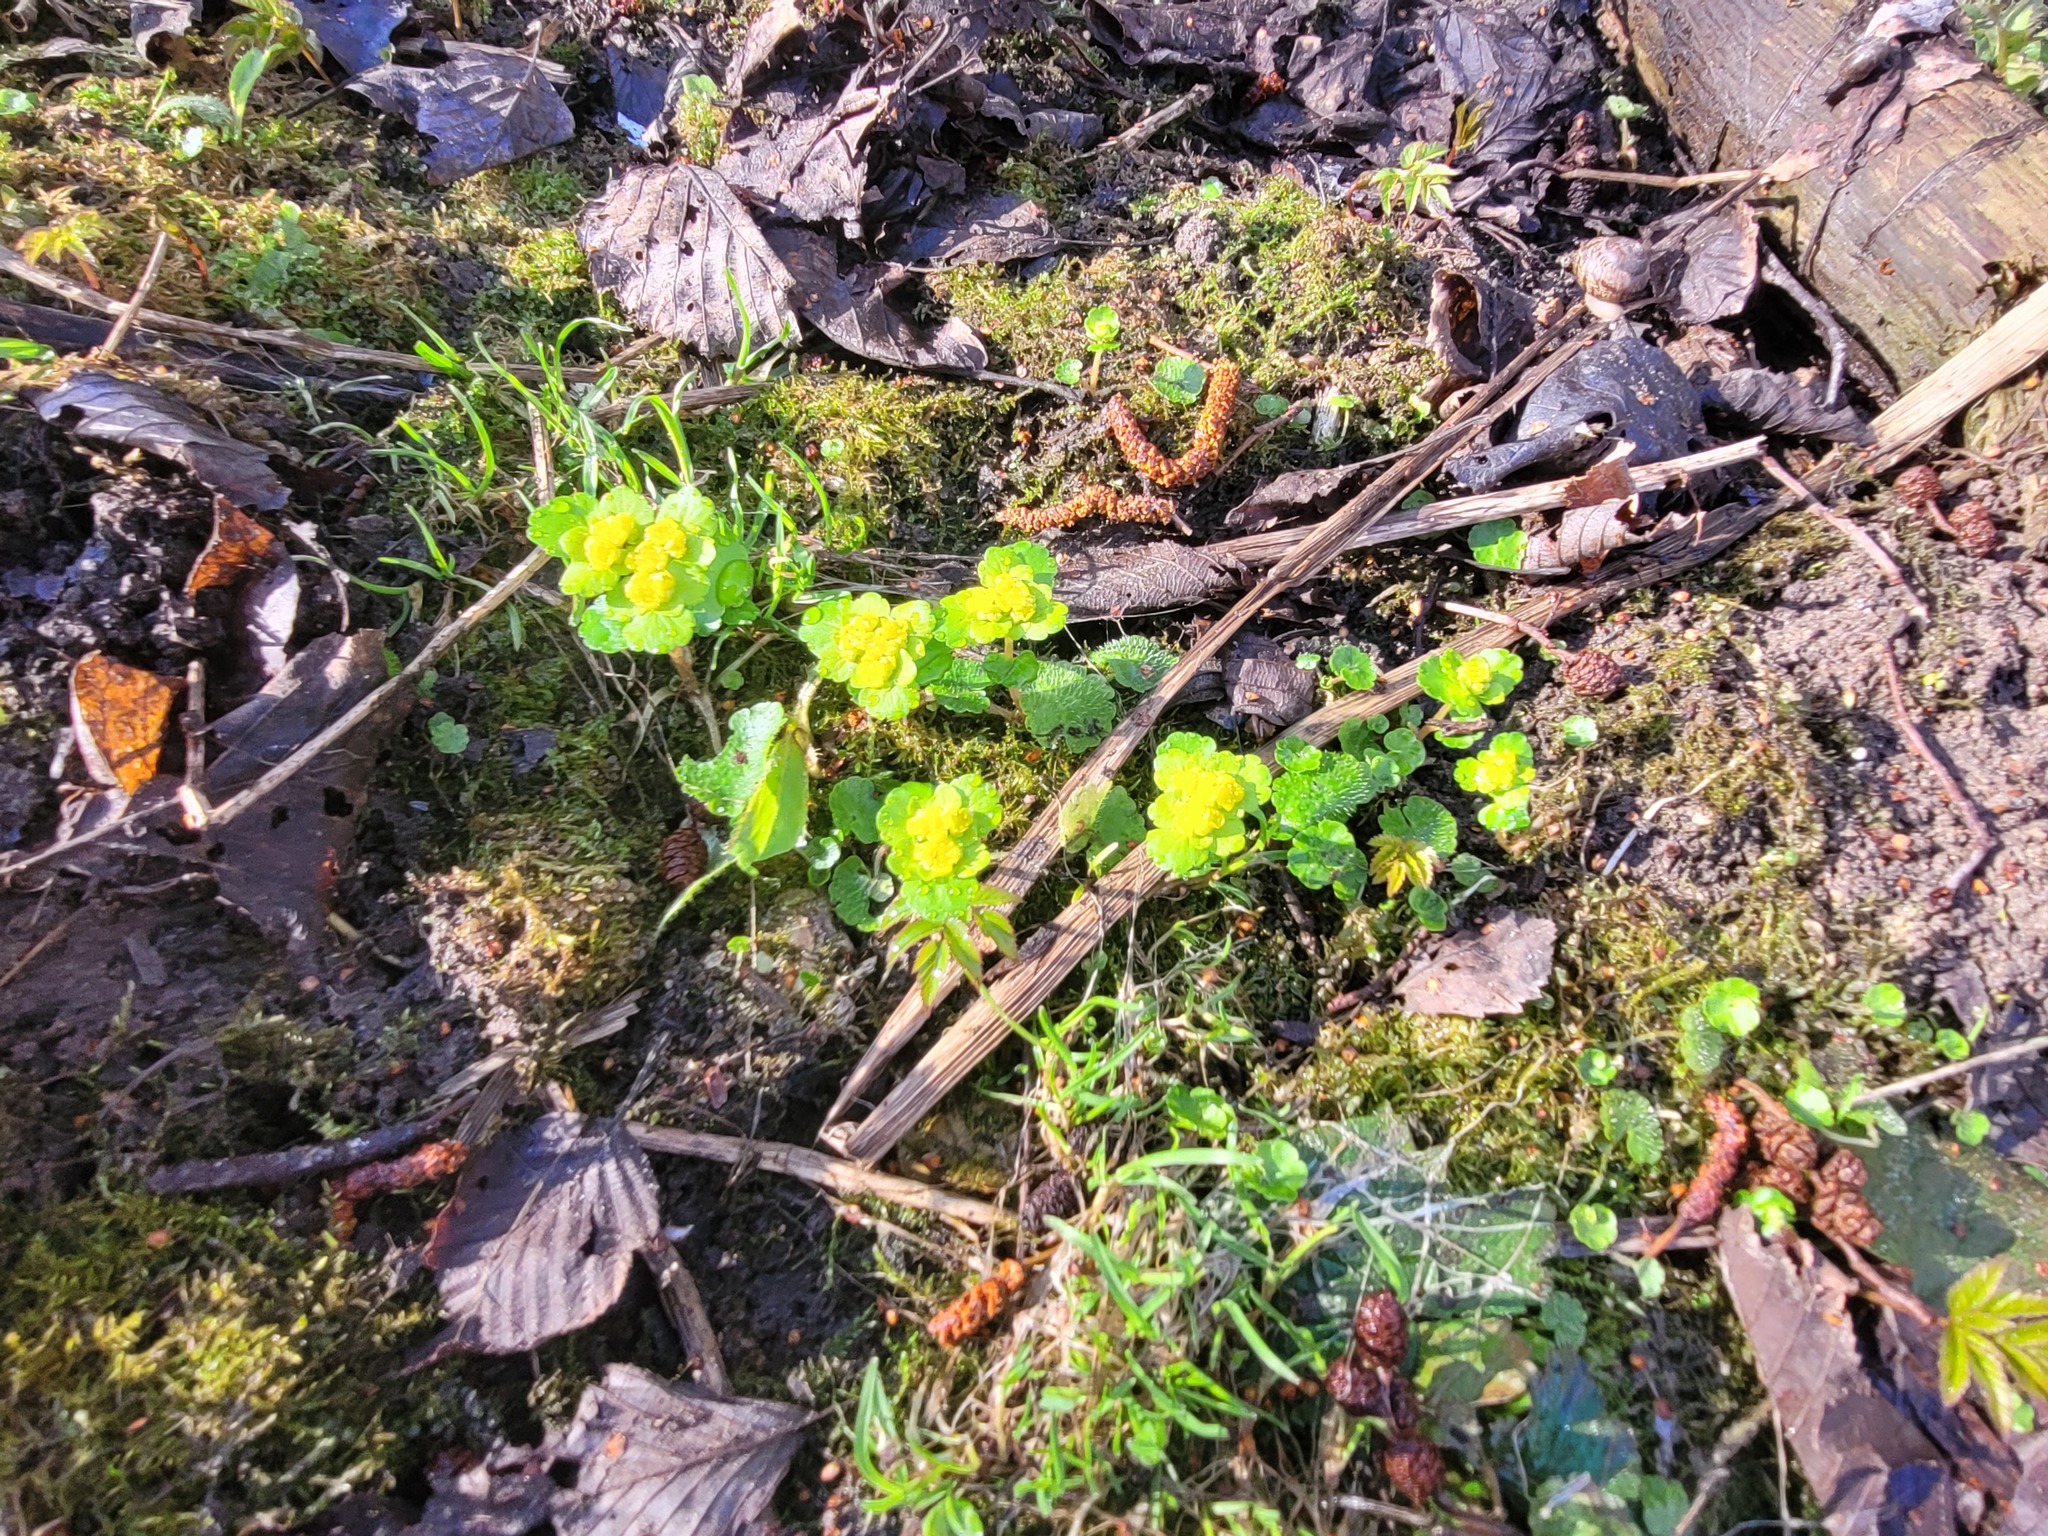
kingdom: Plantae
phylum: Tracheophyta
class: Magnoliopsida
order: Saxifragales
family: Saxifragaceae
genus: Chrysosplenium
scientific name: Chrysosplenium alternifolium
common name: Alternate-leaved golden-saxifrage
